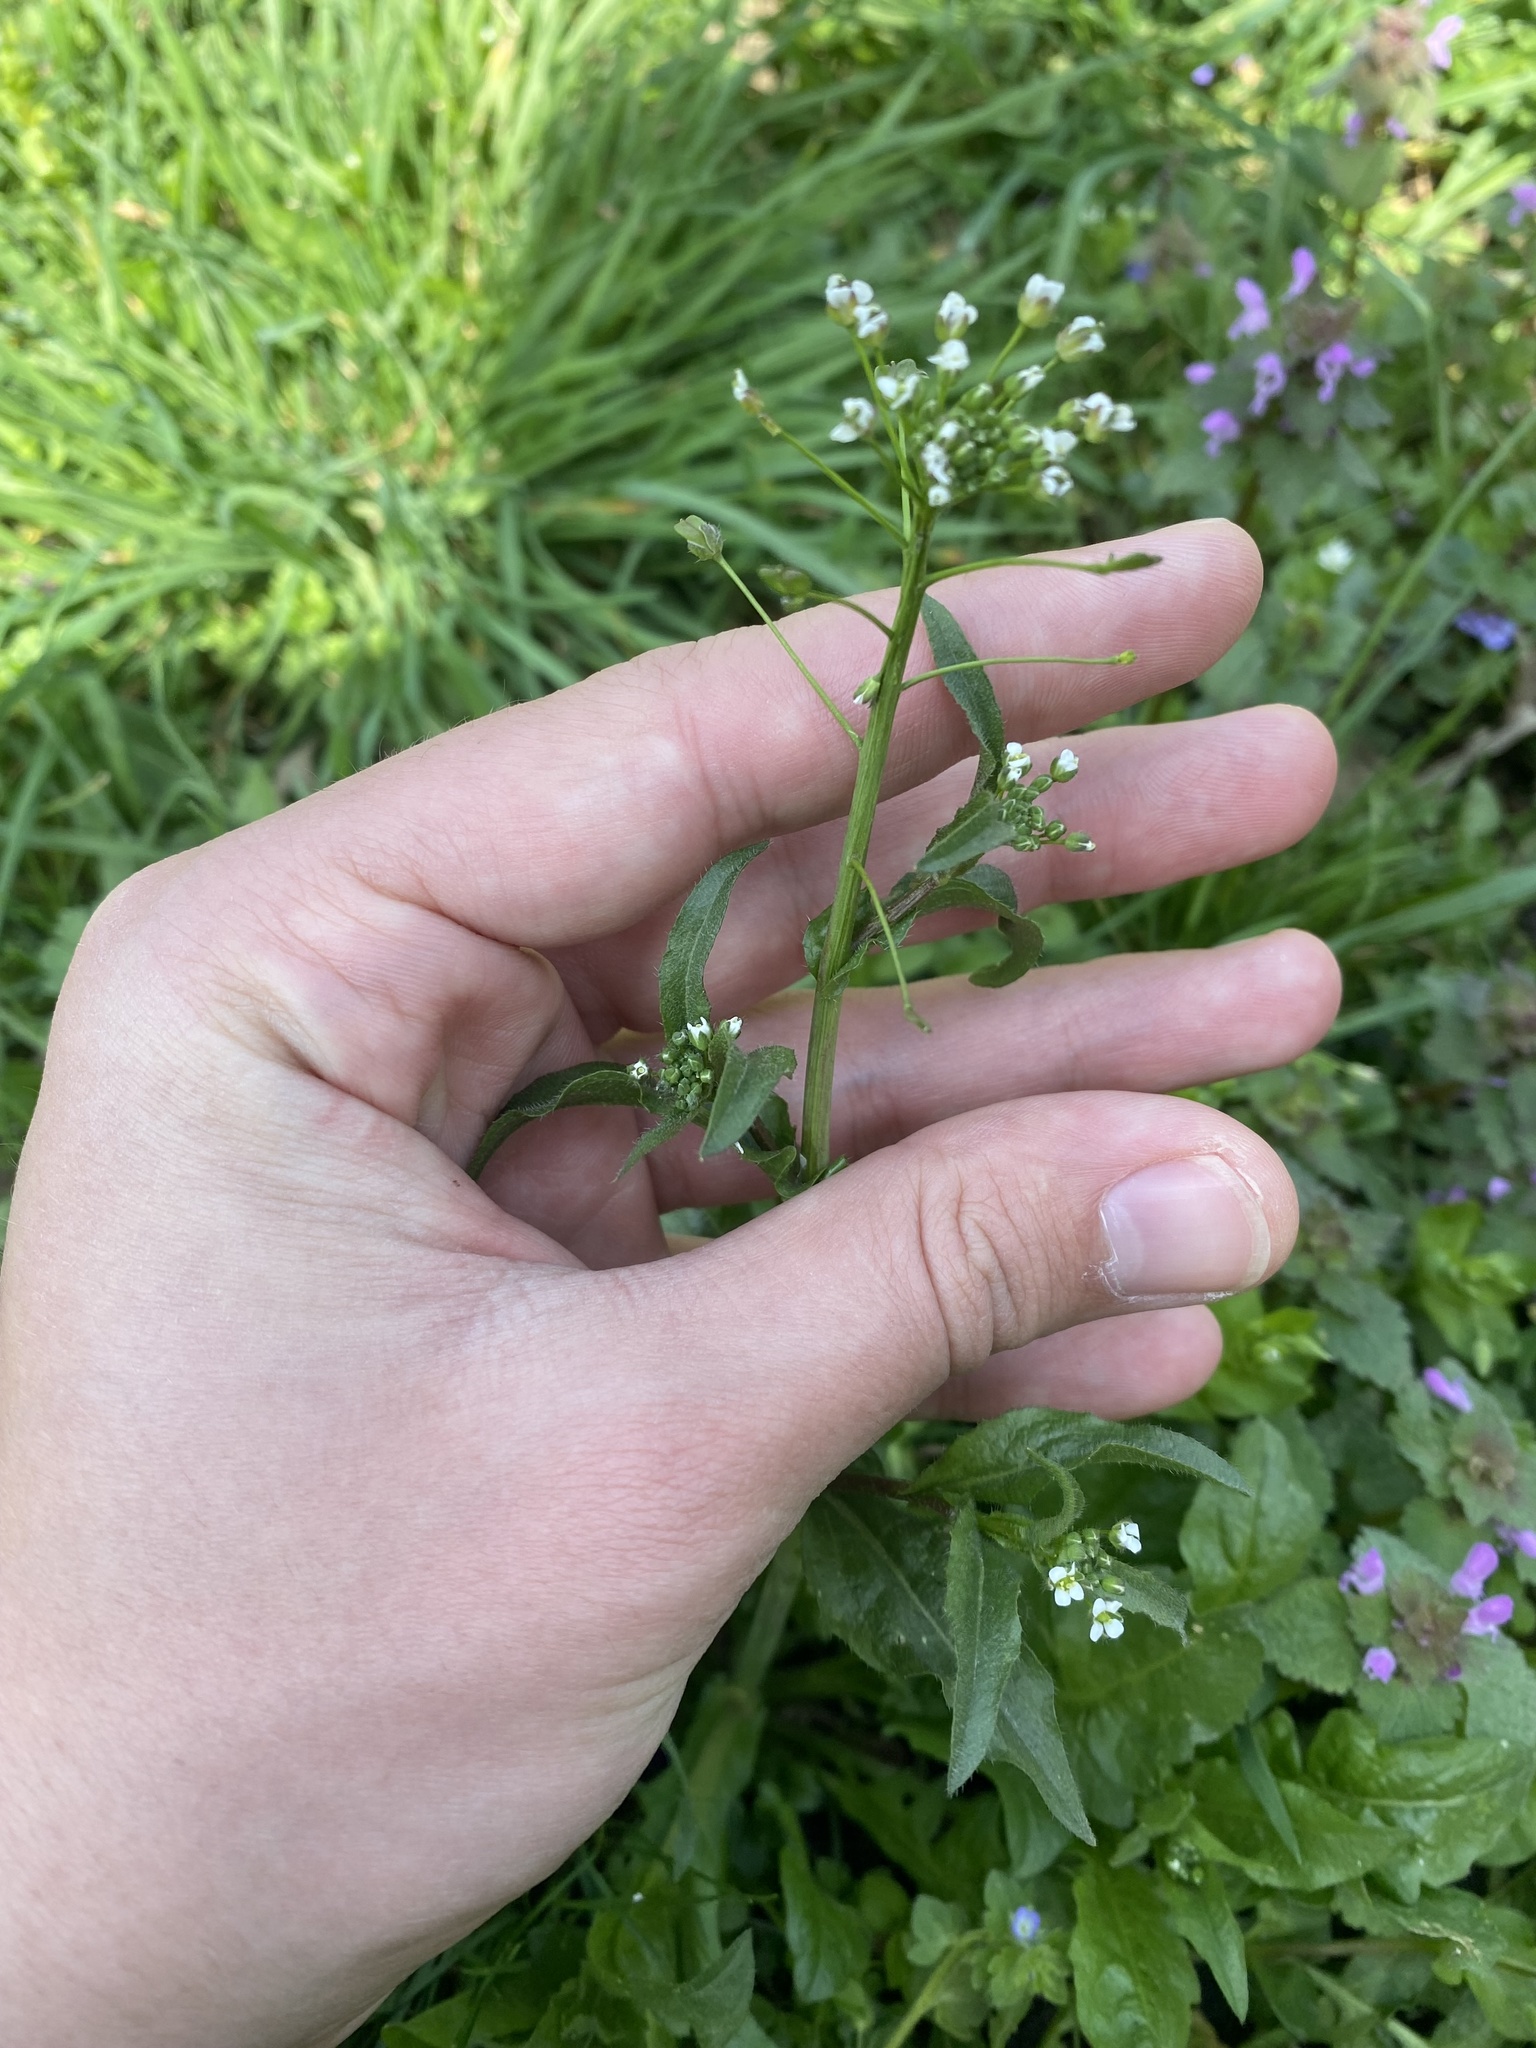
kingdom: Plantae
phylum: Tracheophyta
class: Magnoliopsida
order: Brassicales
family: Brassicaceae
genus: Capsella
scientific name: Capsella bursa-pastoris
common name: Shepherd's purse
